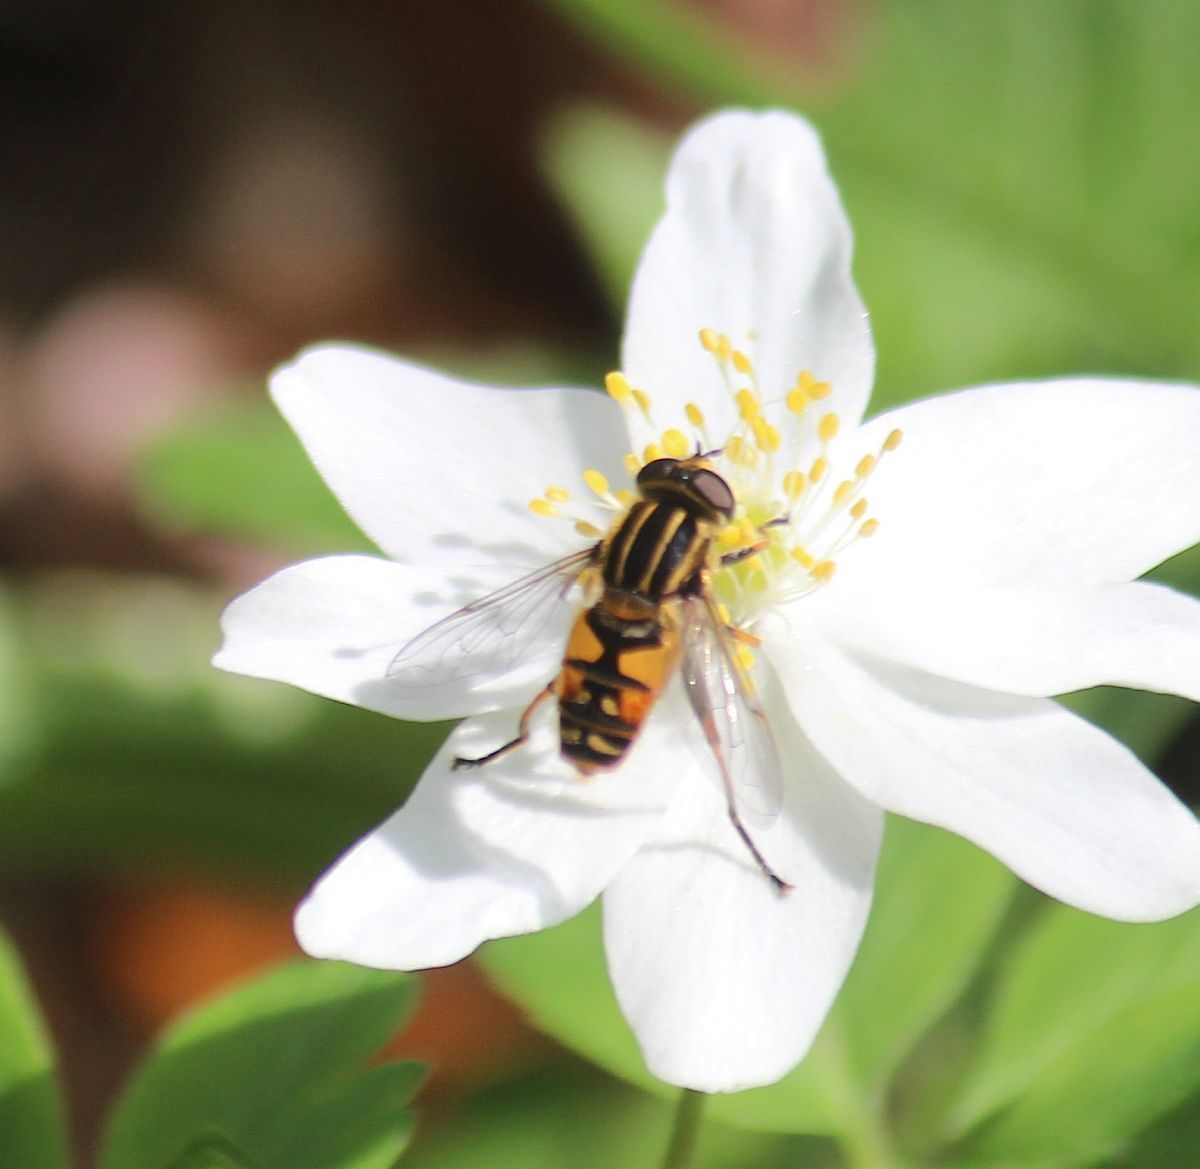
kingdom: Animalia
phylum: Arthropoda
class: Insecta
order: Diptera
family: Syrphidae
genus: Helophilus
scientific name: Helophilus pendulus
